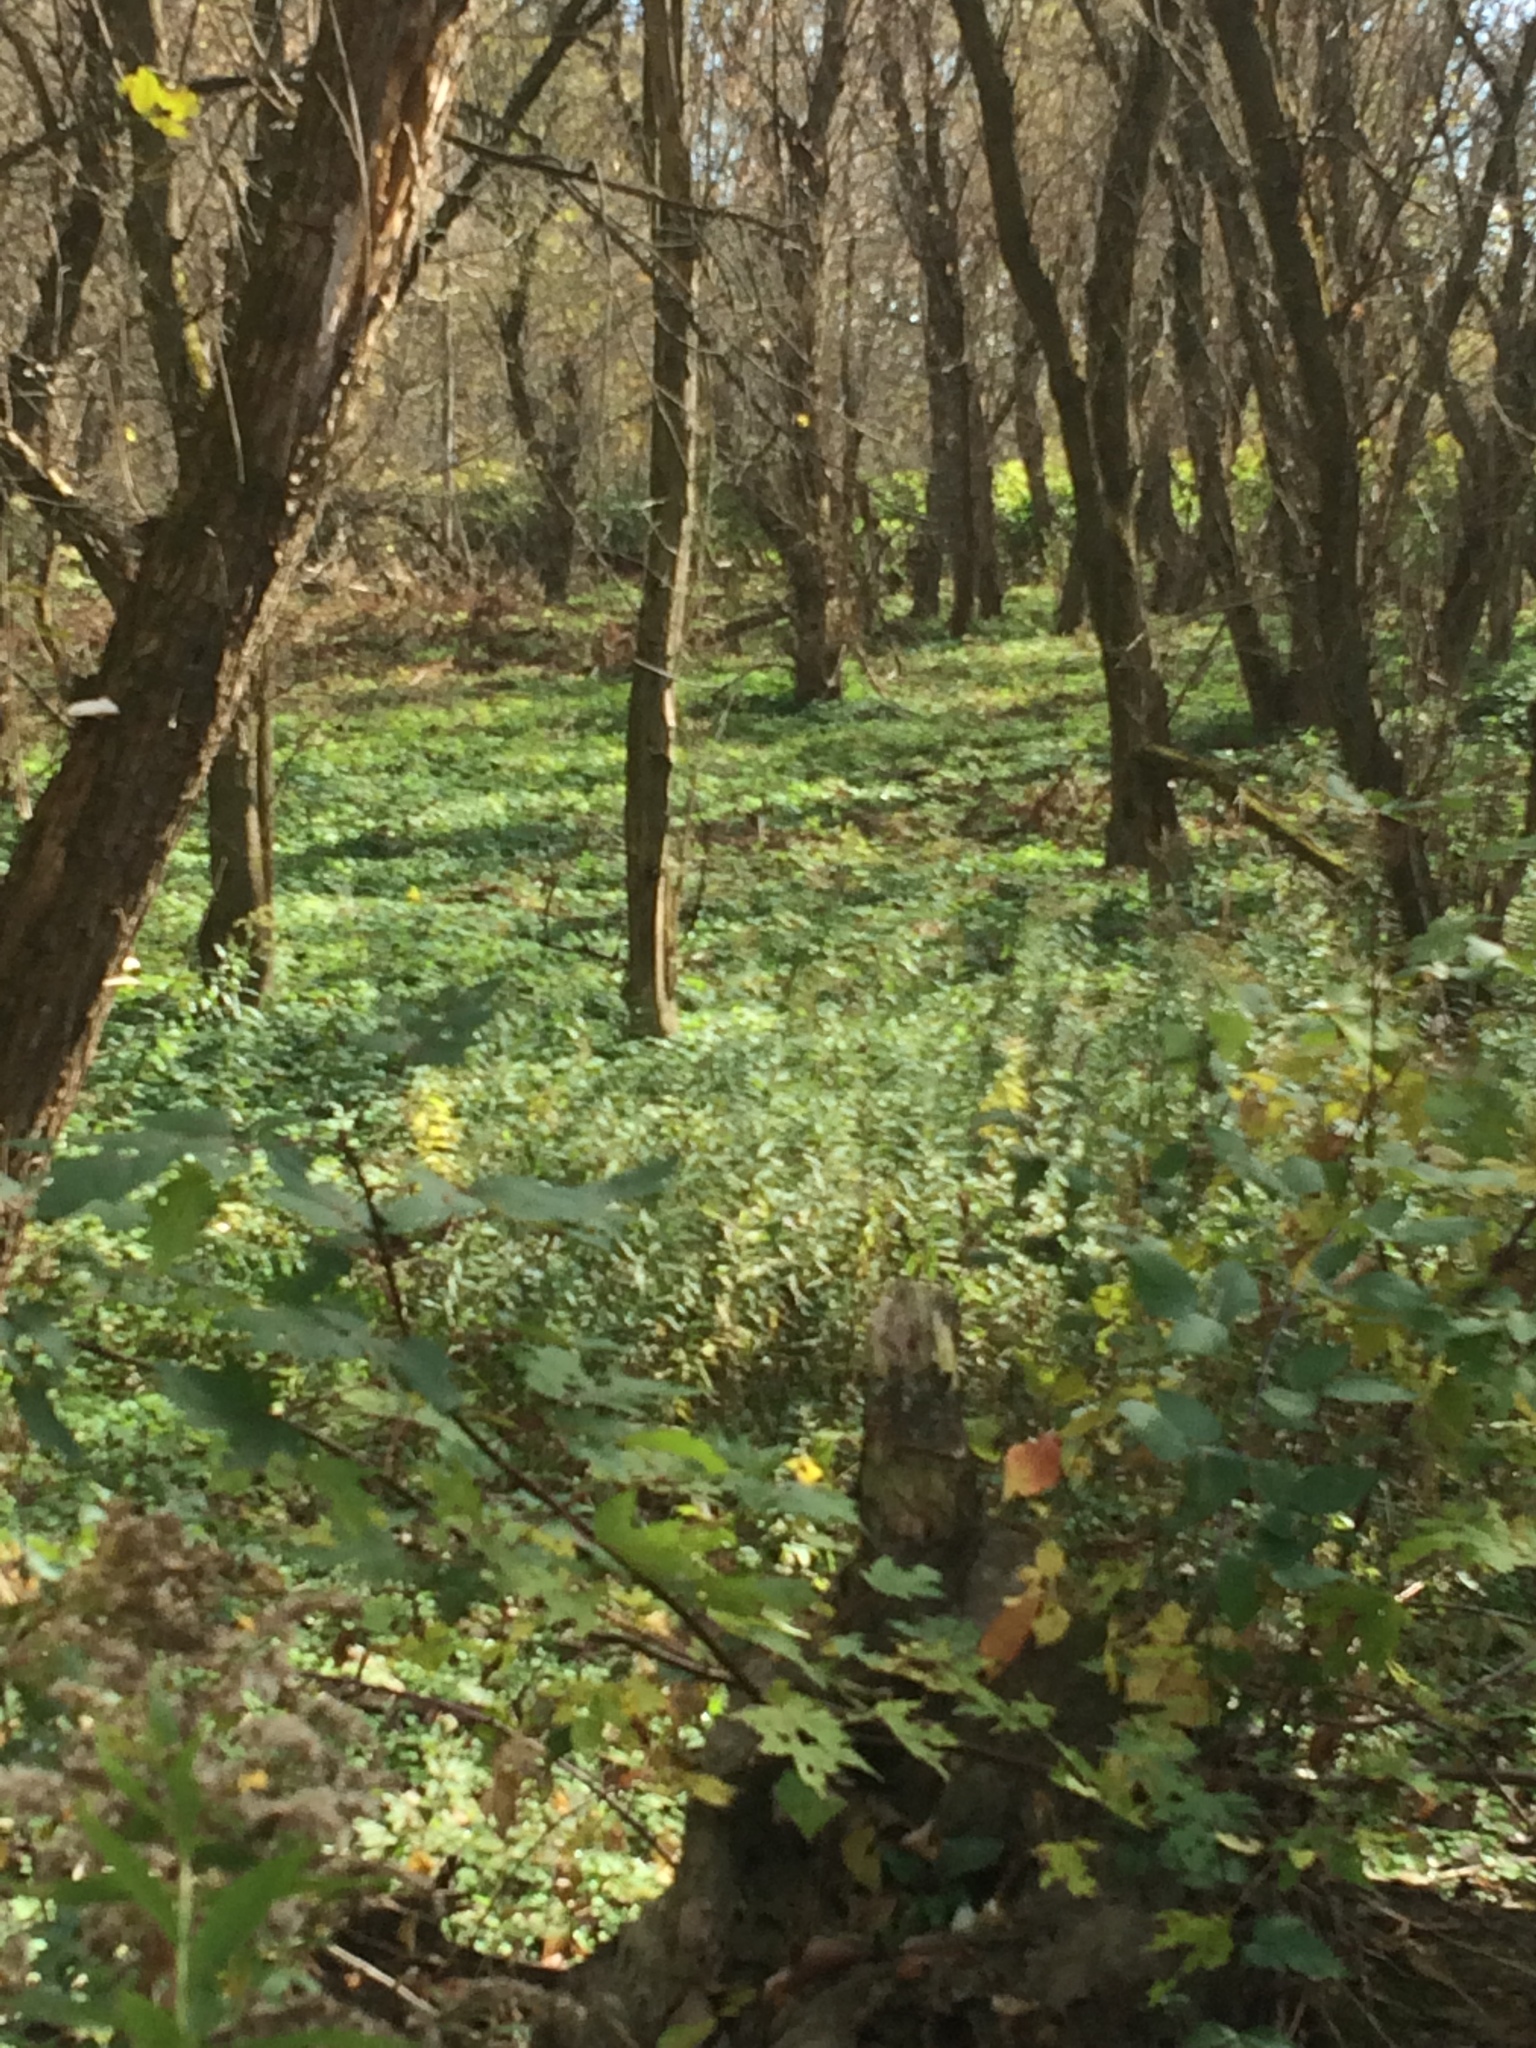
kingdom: Plantae
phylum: Tracheophyta
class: Magnoliopsida
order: Apiales
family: Apiaceae
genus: Aegopodium
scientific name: Aegopodium podagraria
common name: Ground-elder
